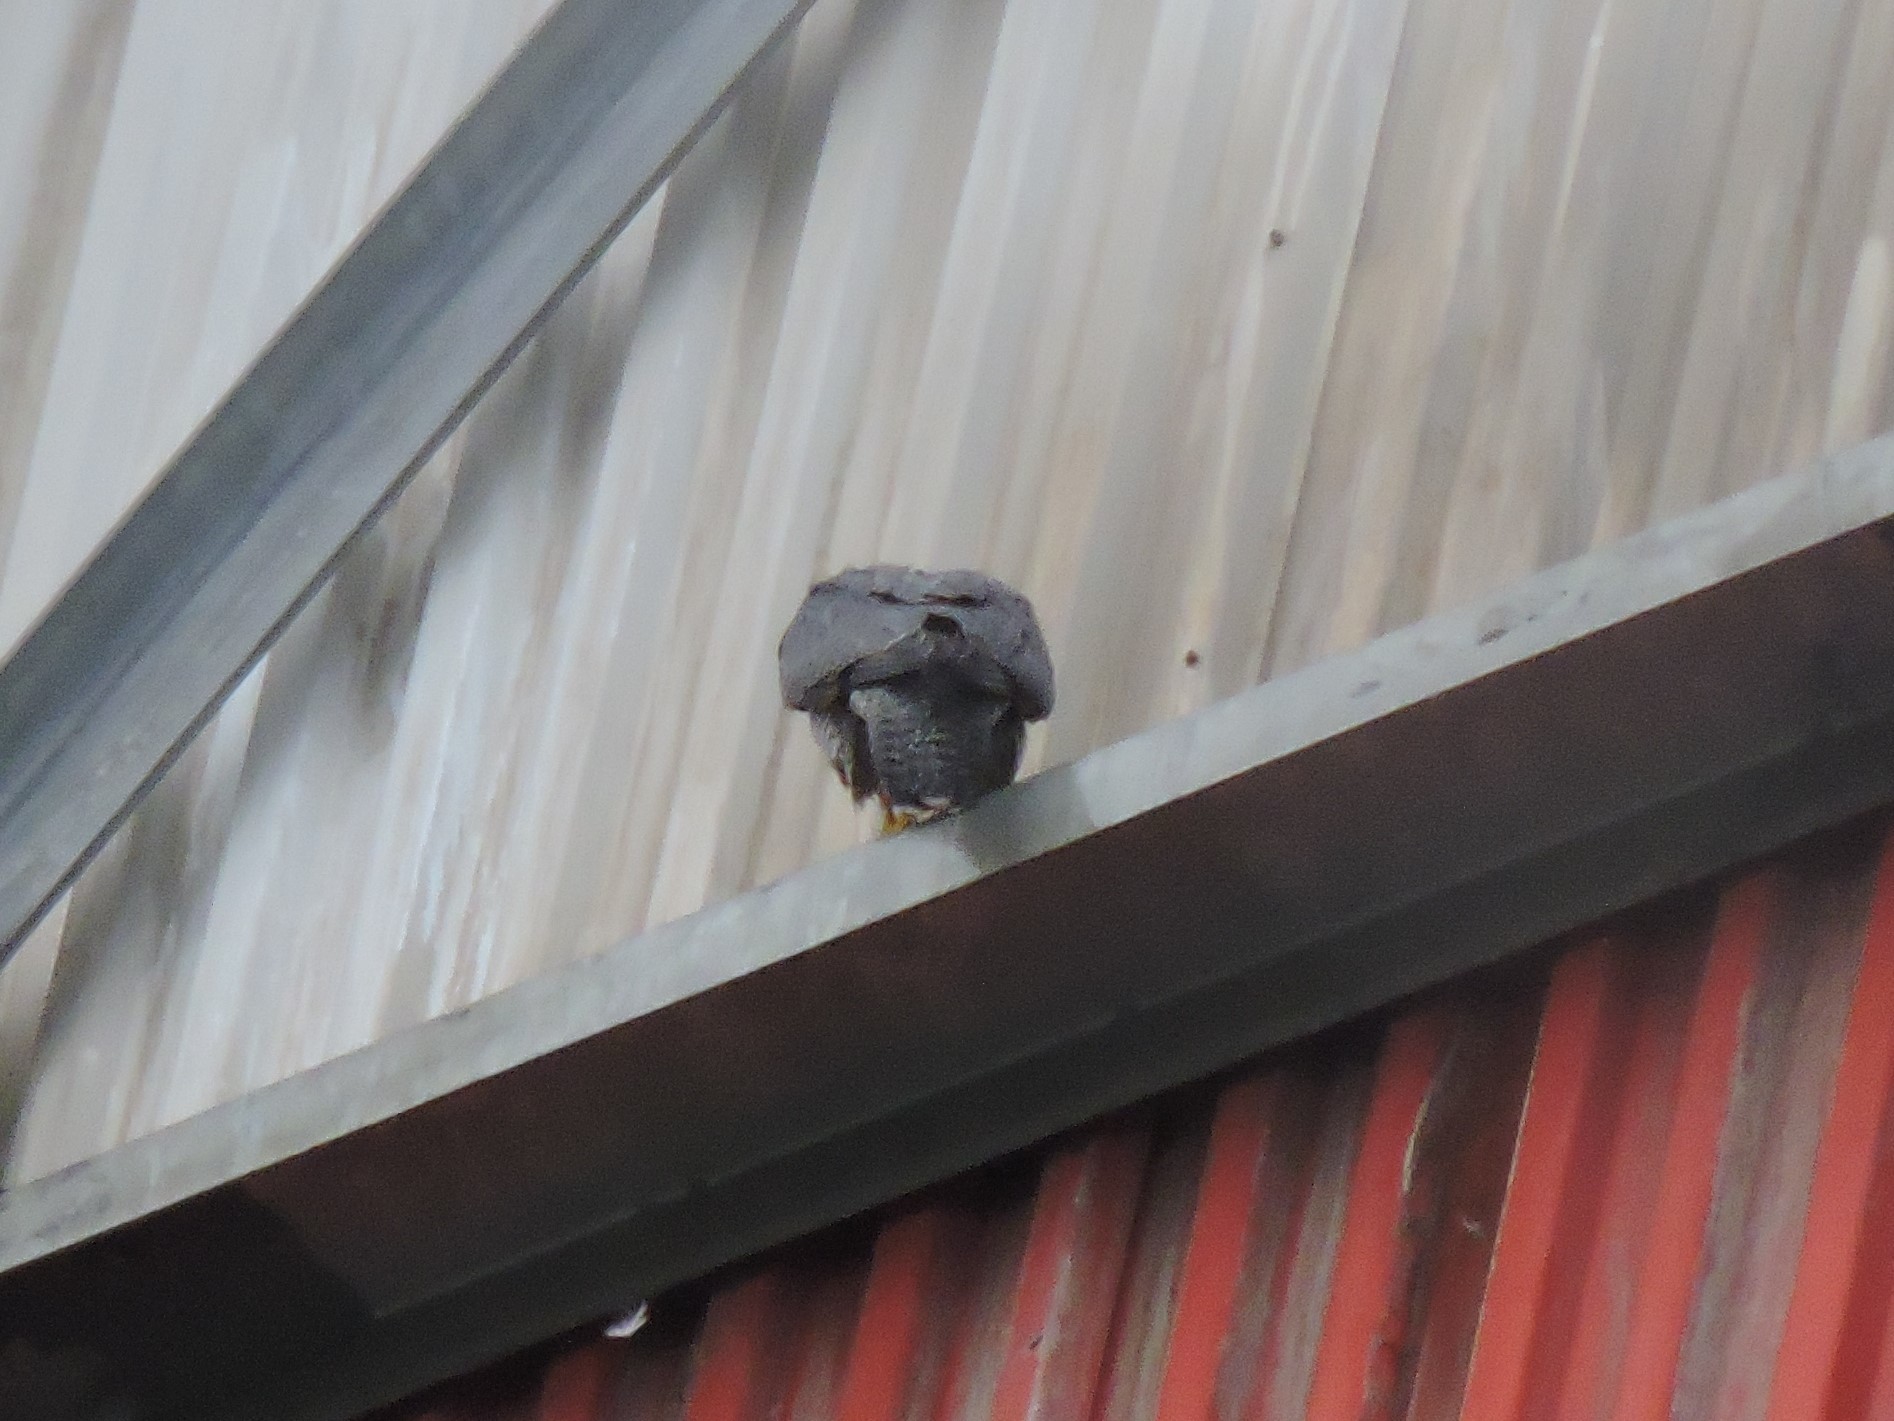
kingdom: Animalia
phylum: Chordata
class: Aves
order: Falconiformes
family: Falconidae
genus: Falco
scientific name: Falco peregrinus
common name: Peregrine falcon
